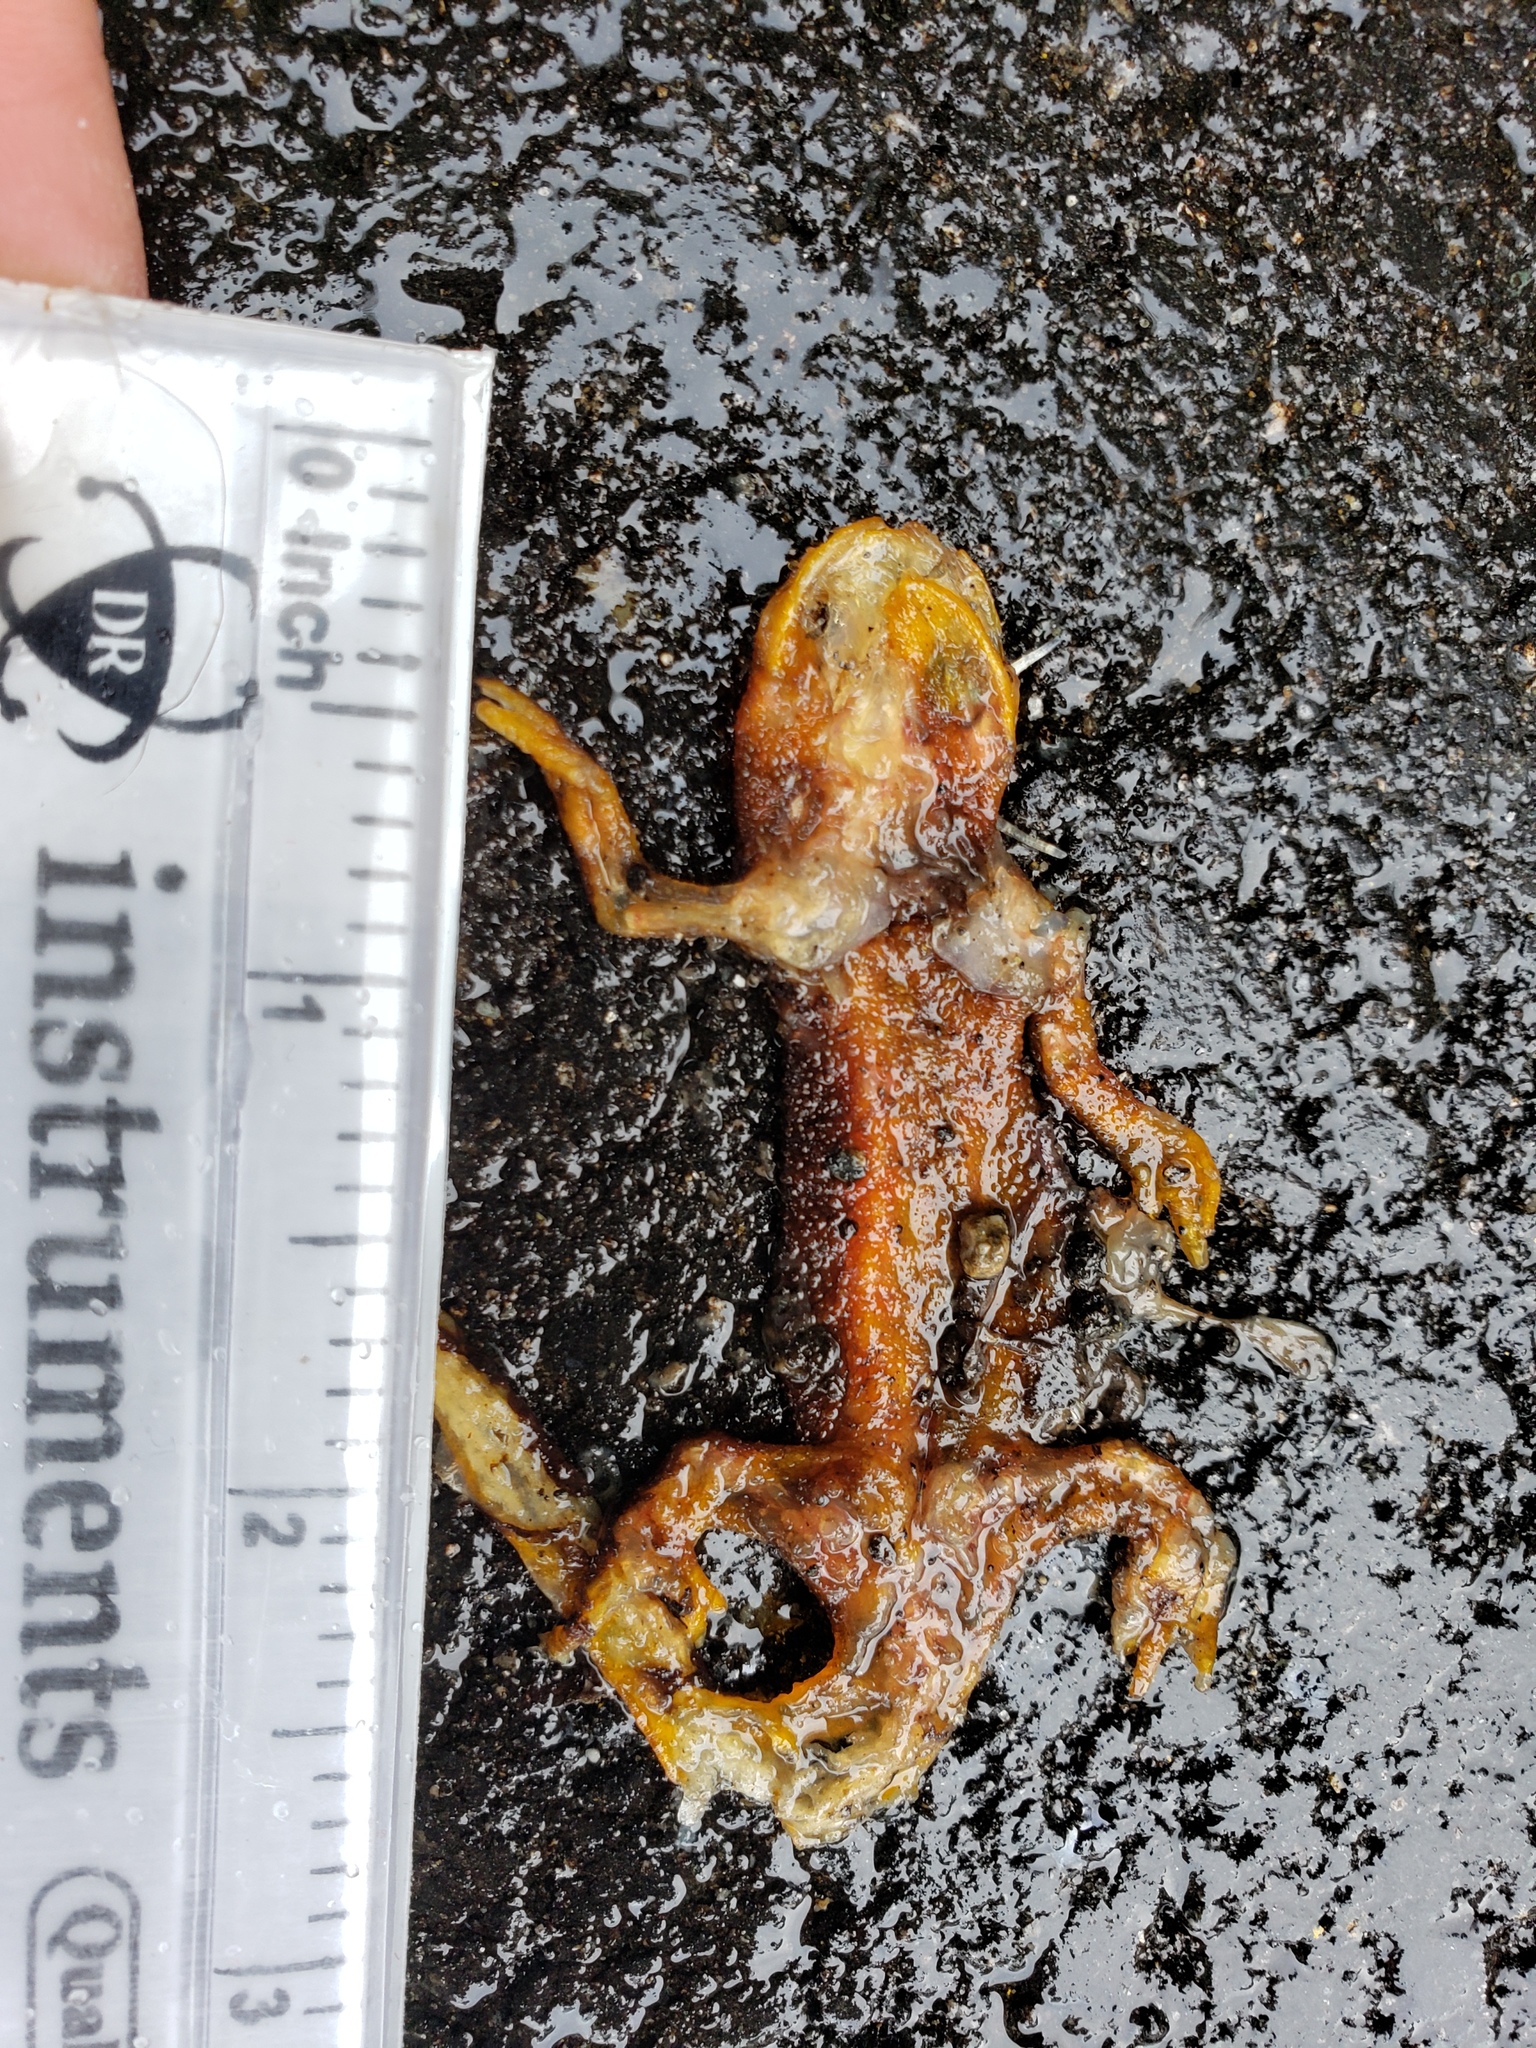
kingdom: Animalia
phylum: Chordata
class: Amphibia
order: Caudata
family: Salamandridae
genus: Taricha
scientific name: Taricha
